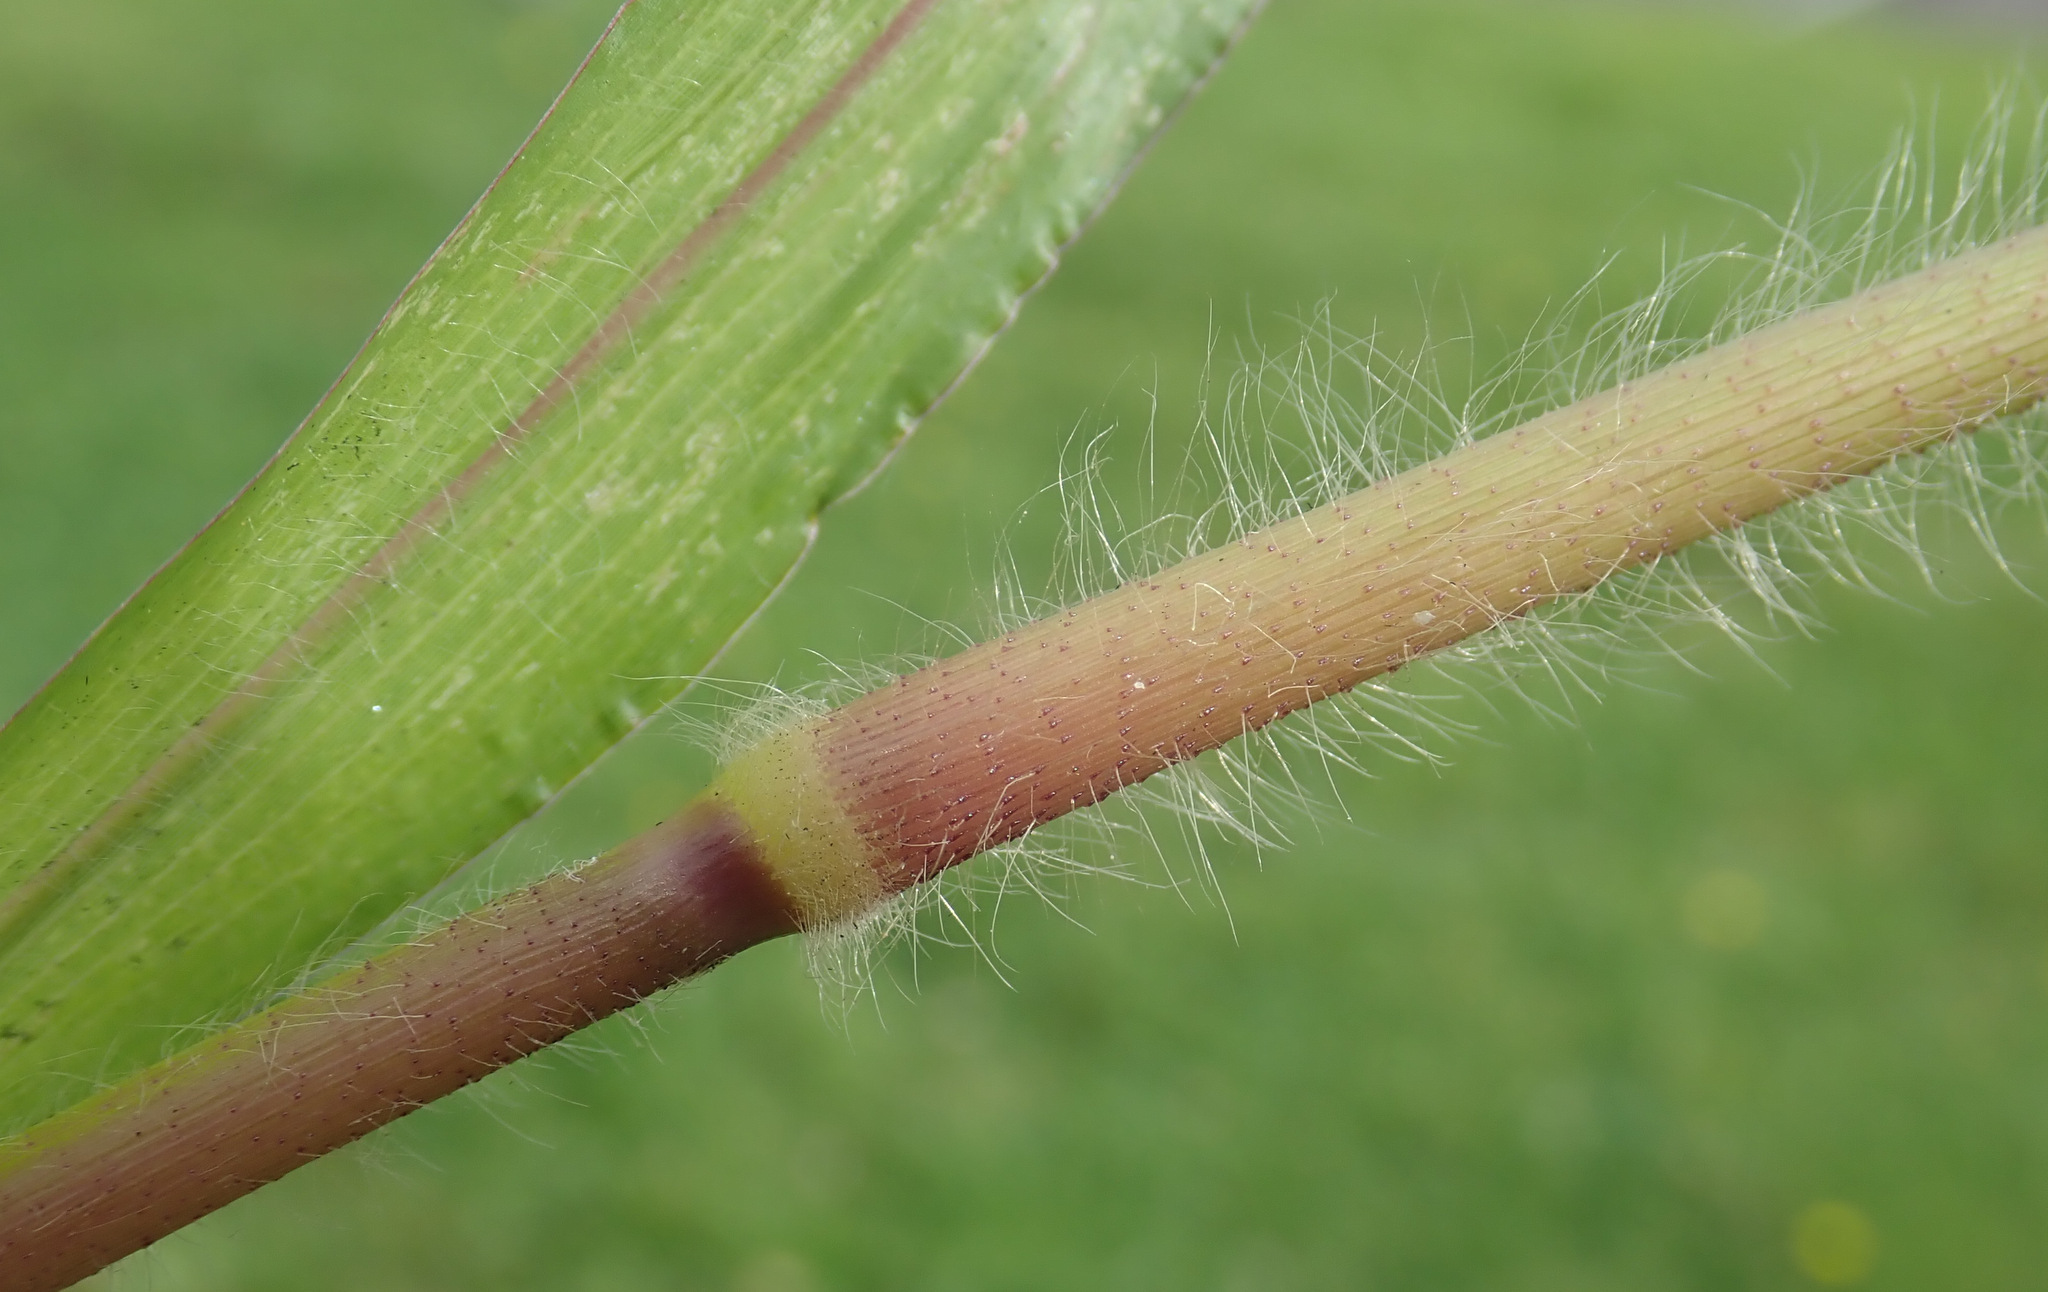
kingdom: Plantae
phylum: Tracheophyta
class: Liliopsida
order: Poales
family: Poaceae
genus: Panicum
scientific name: Panicum miliaceum
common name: Common millet
